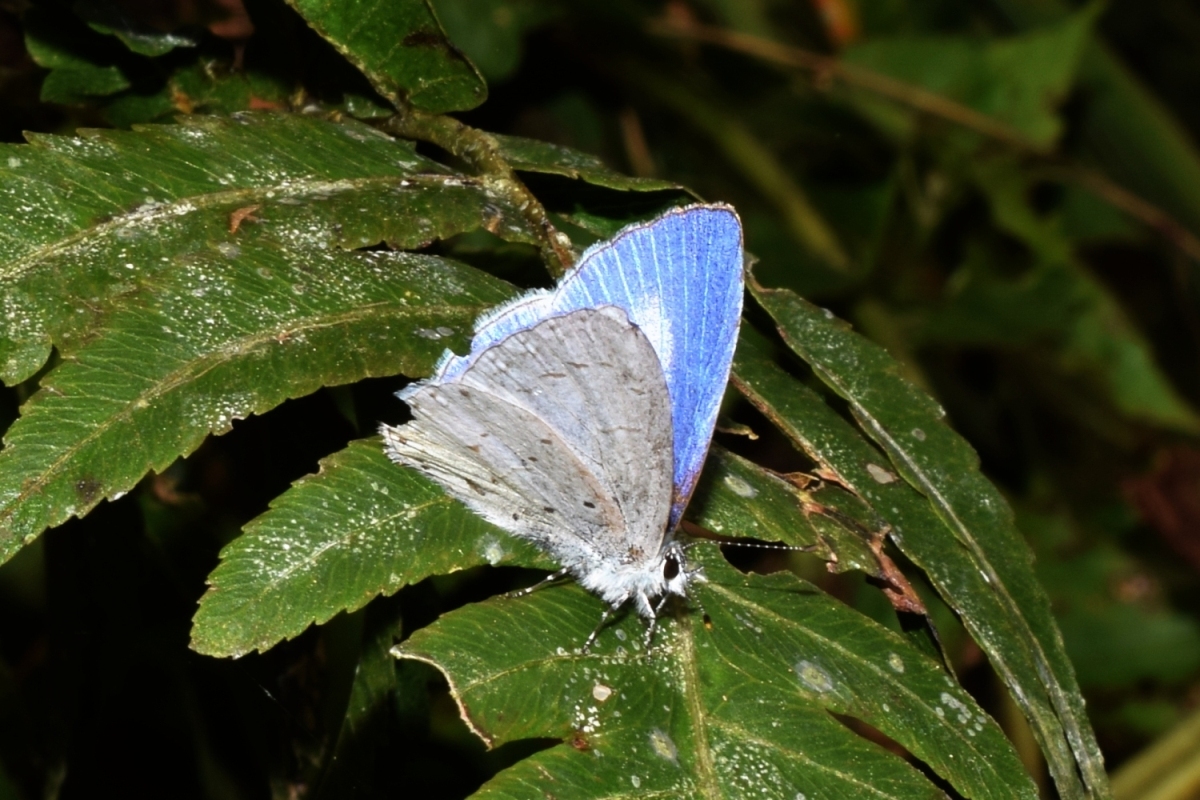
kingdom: Animalia
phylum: Arthropoda
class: Insecta
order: Lepidoptera
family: Lycaenidae
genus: Udara
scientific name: Udara dilectus
